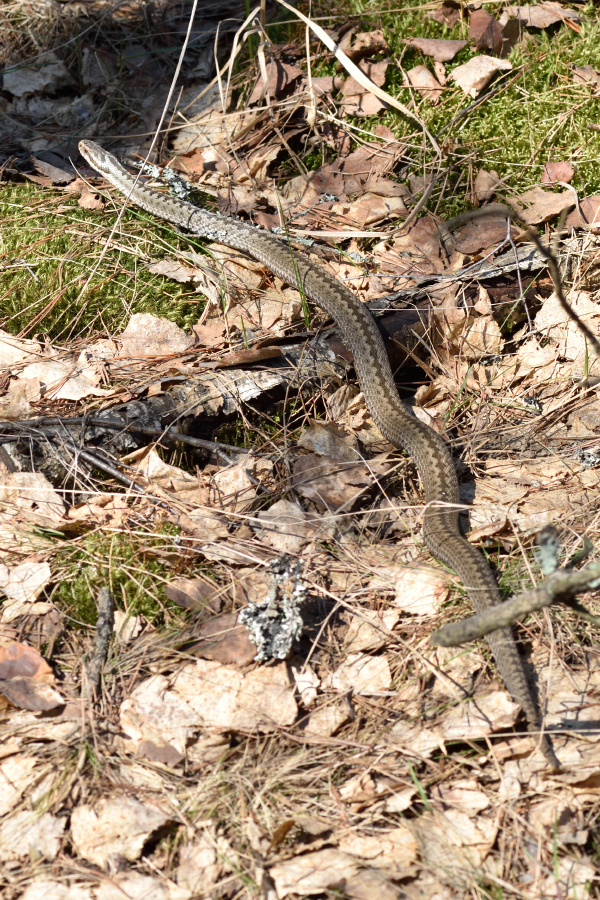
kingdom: Animalia
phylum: Chordata
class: Squamata
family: Viperidae
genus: Vipera
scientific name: Vipera berus
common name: Adder
